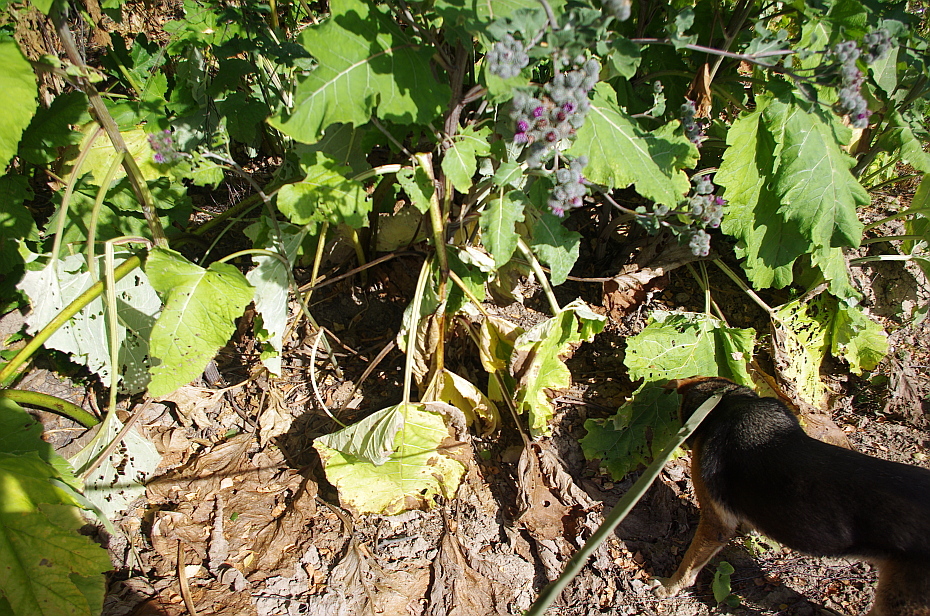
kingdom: Plantae
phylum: Tracheophyta
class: Magnoliopsida
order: Asterales
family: Asteraceae
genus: Arctium
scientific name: Arctium tomentosum
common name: Woolly burdock
